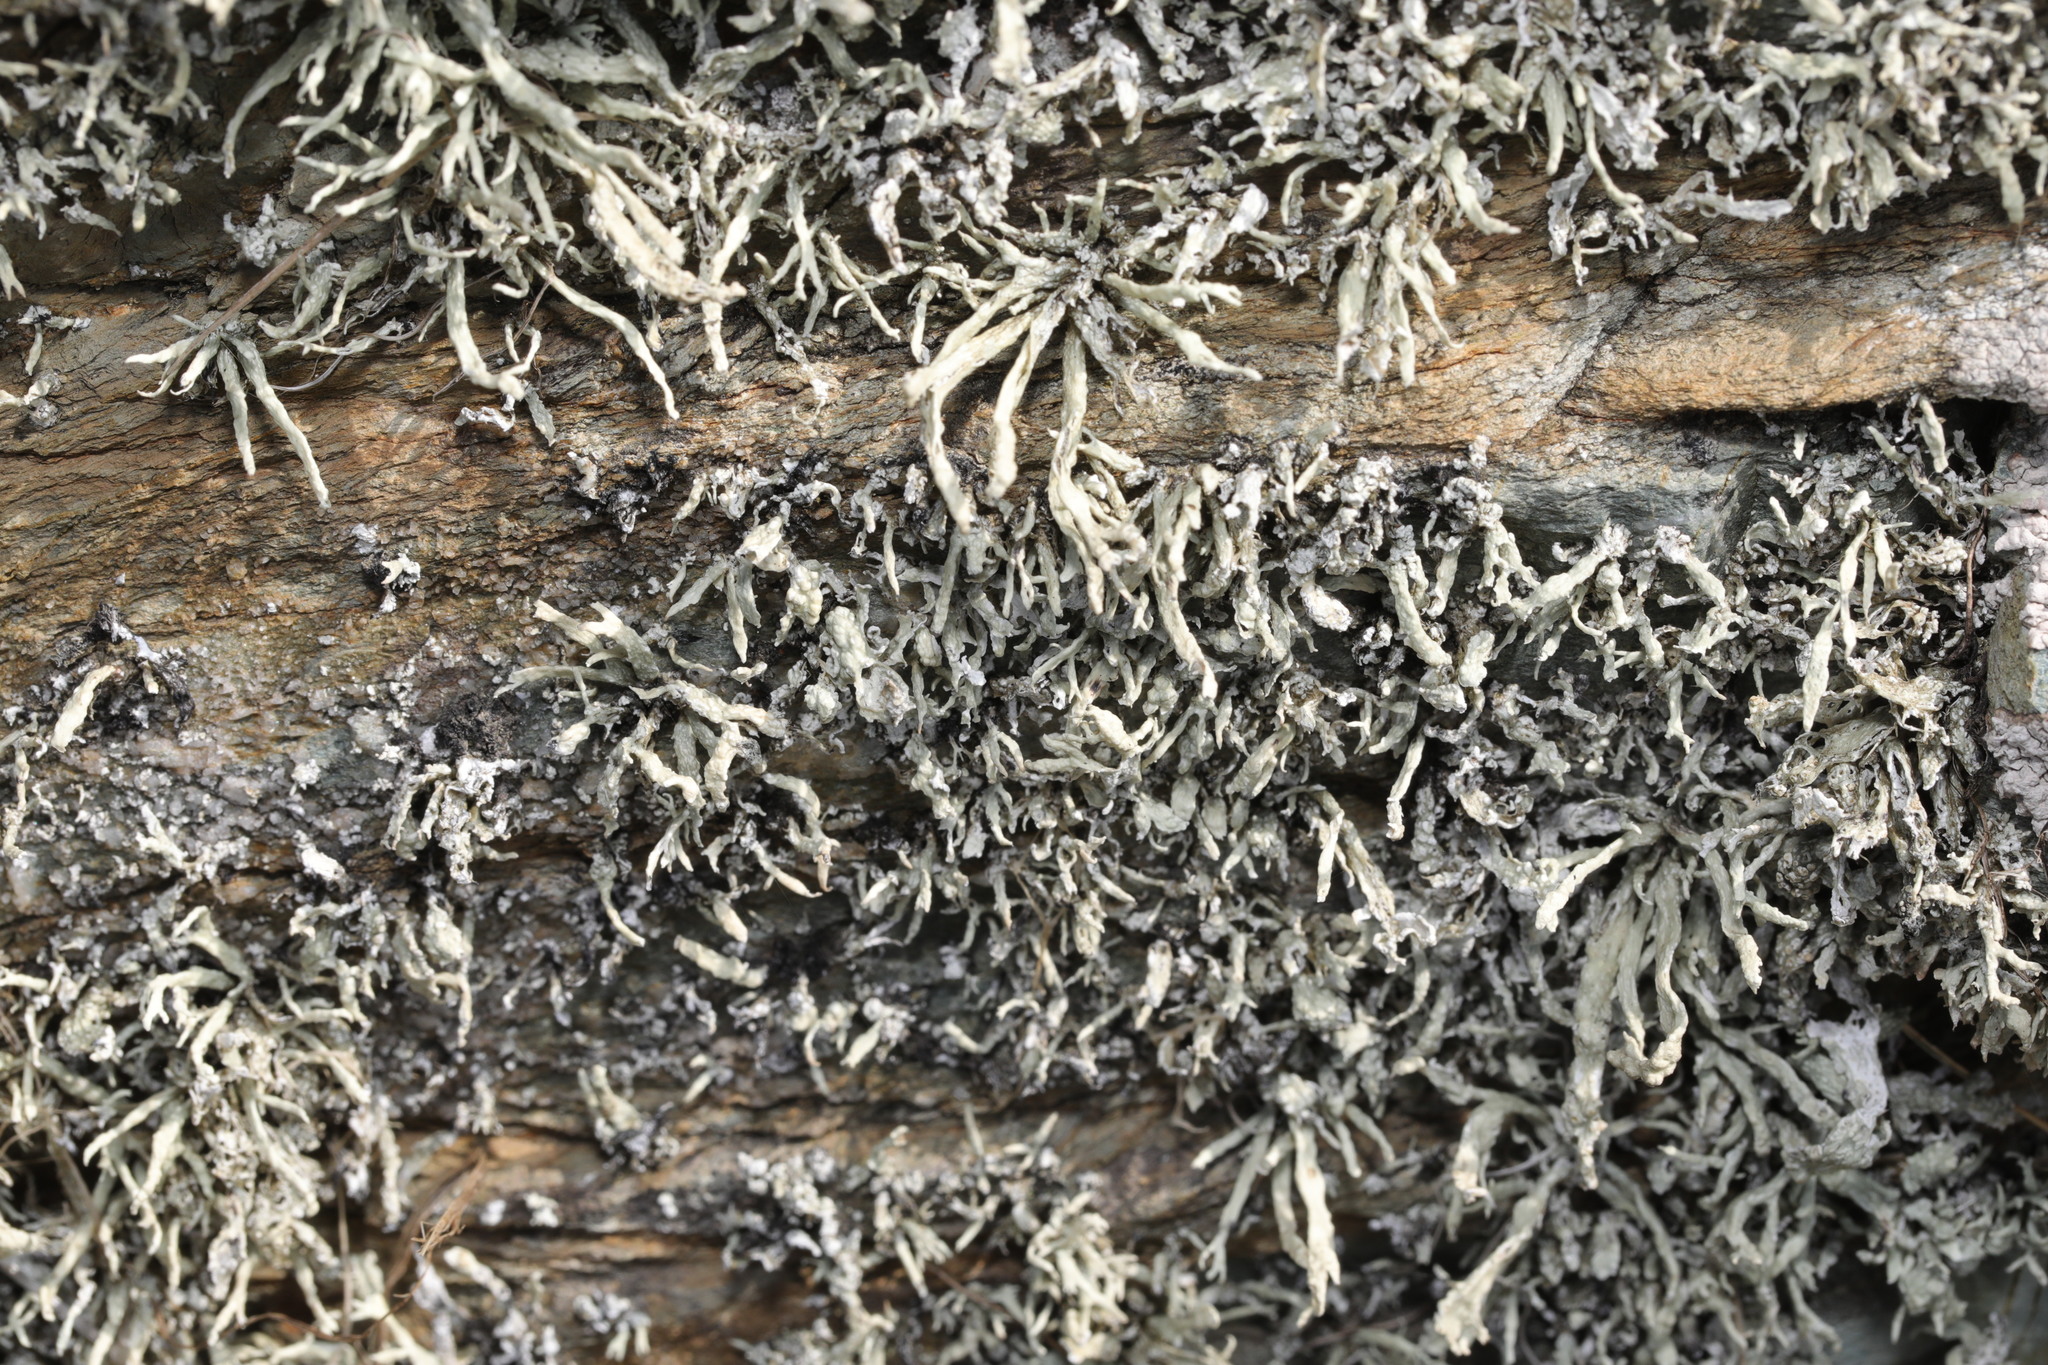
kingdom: Fungi
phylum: Ascomycota
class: Lecanoromycetes
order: Lecanorales
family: Ramalinaceae
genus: Ramalina
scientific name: Ramalina siliquosa
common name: Sea ivory
